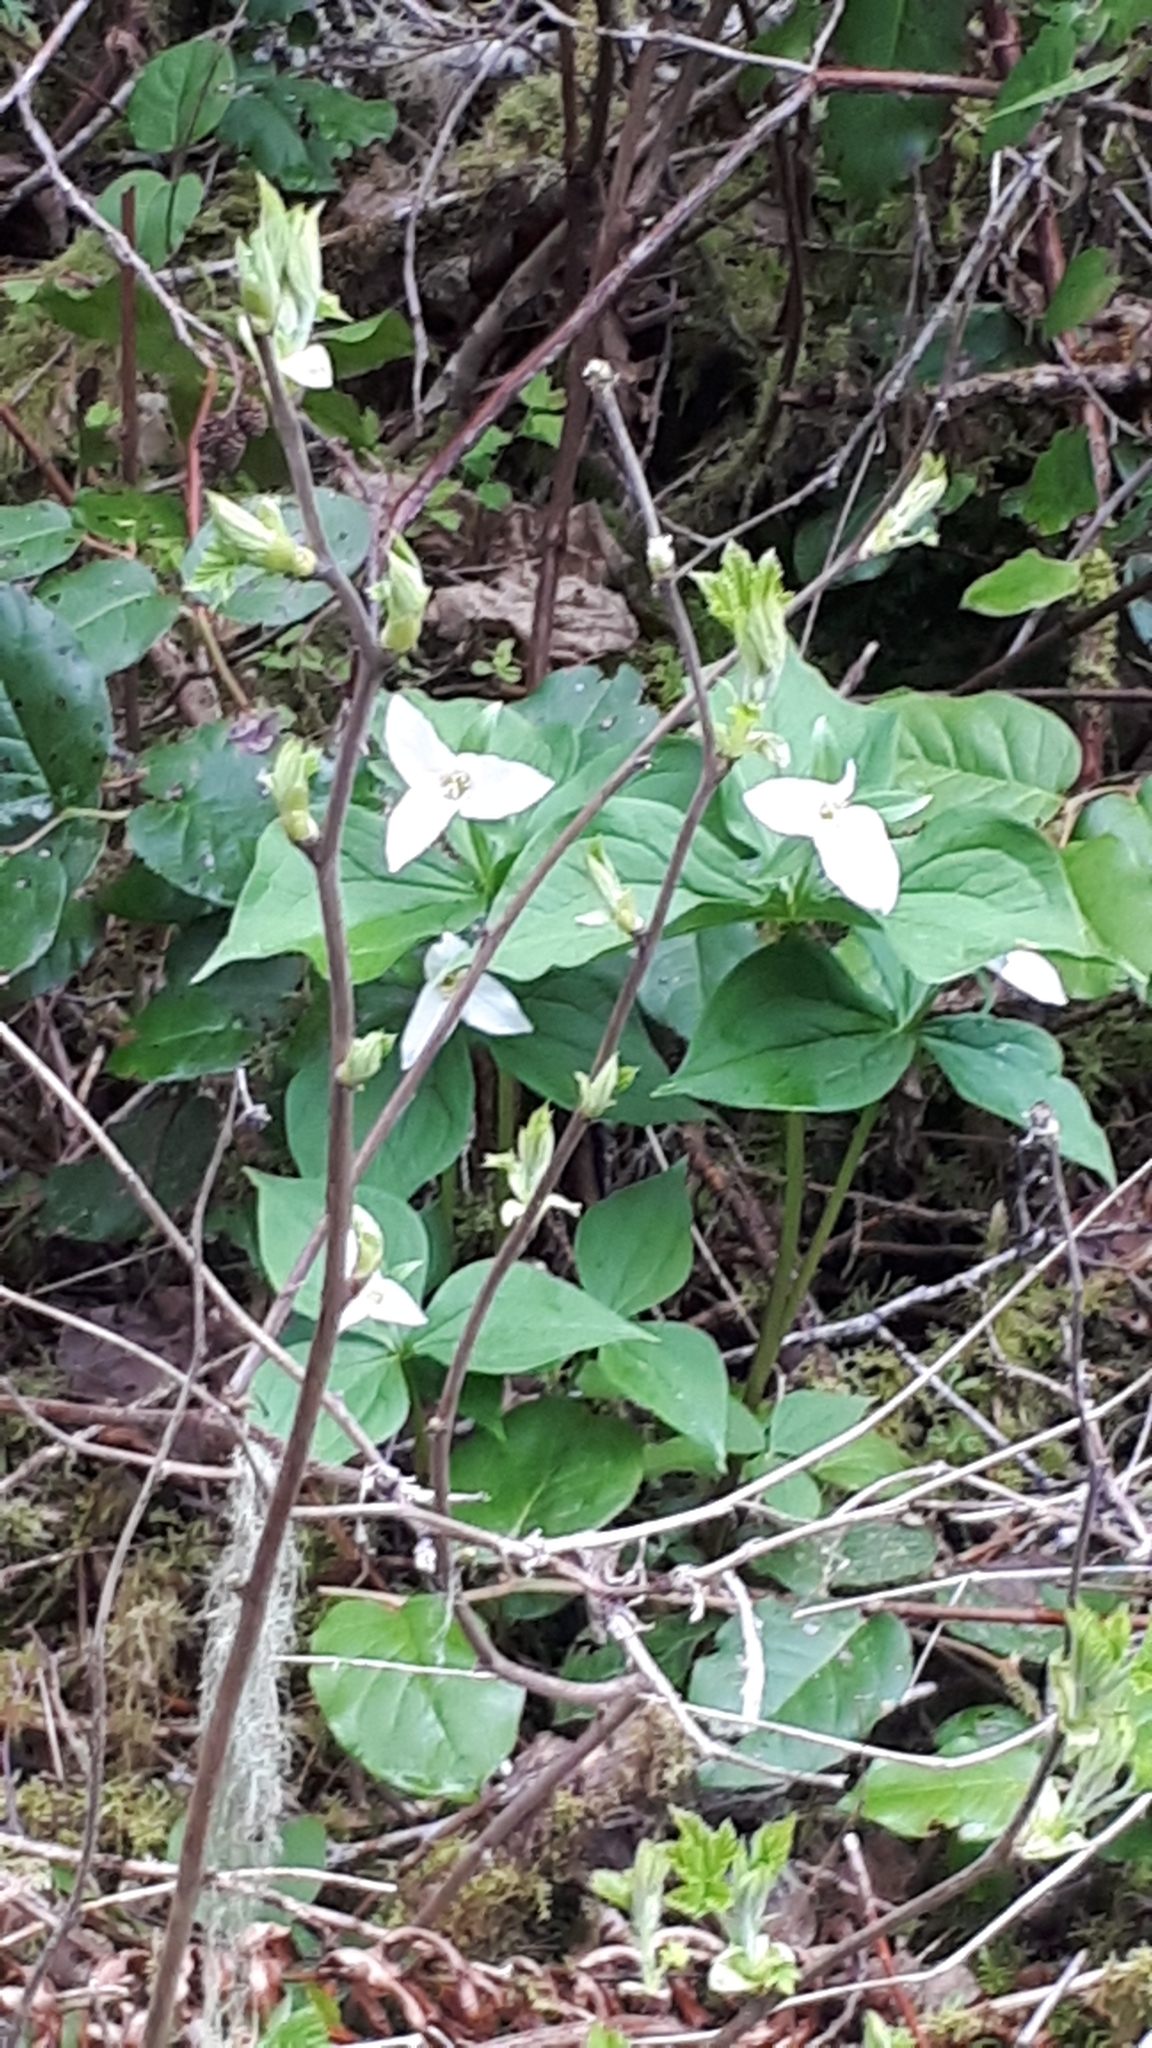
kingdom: Plantae
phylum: Tracheophyta
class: Liliopsida
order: Liliales
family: Melanthiaceae
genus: Trillium
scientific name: Trillium ovatum
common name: Pacific trillium
